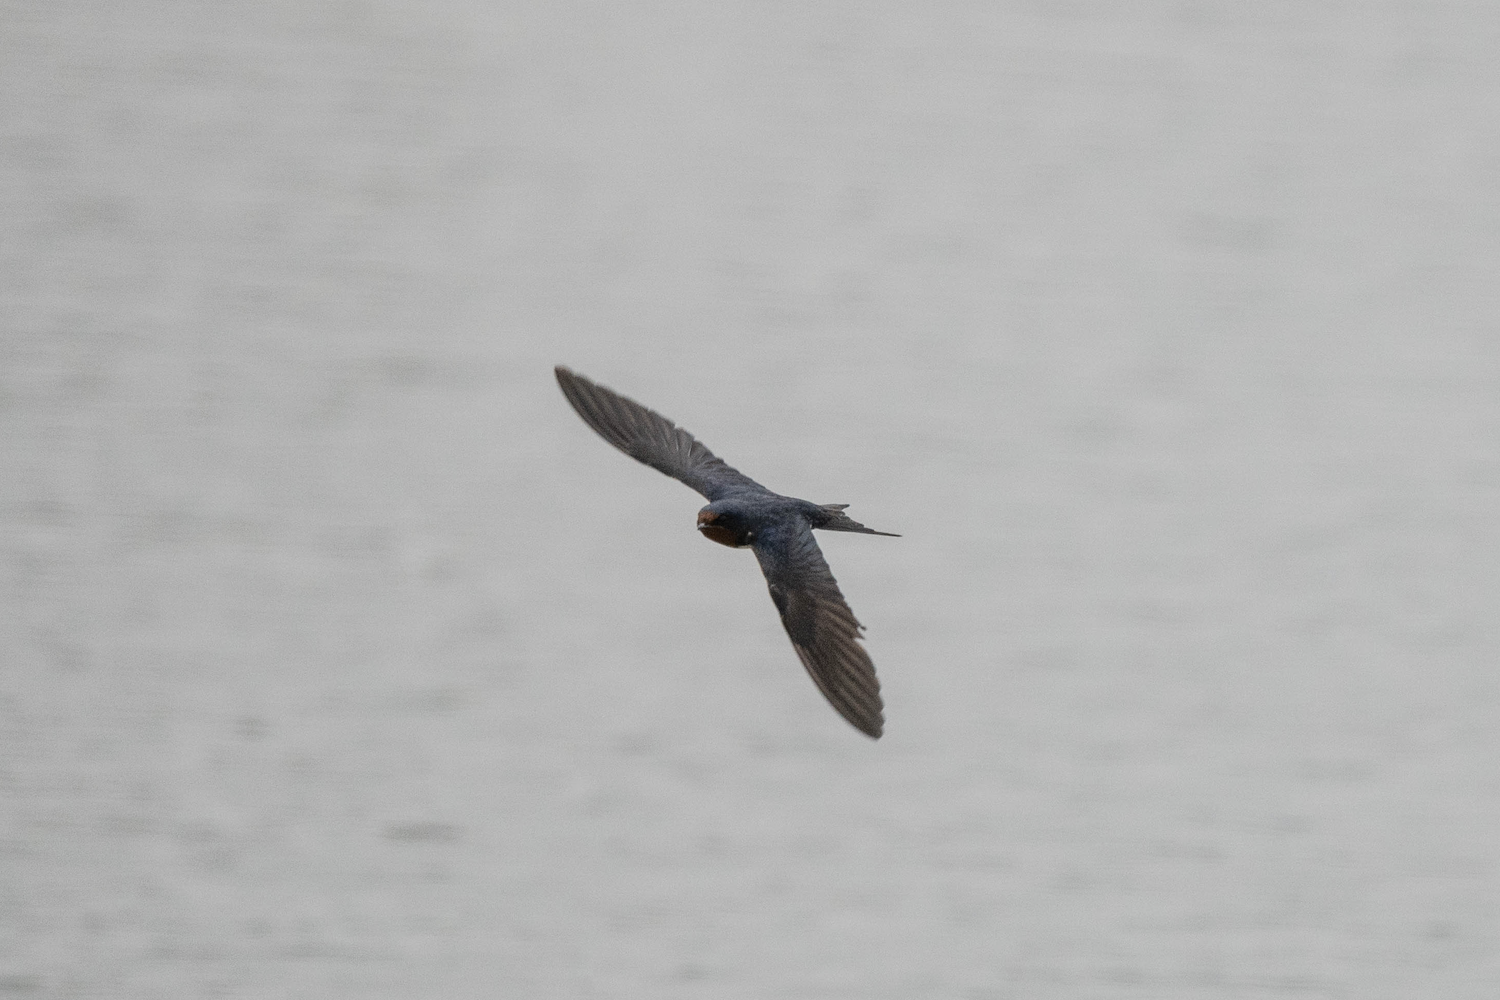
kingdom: Animalia
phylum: Chordata
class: Aves
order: Passeriformes
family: Hirundinidae
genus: Hirundo
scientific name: Hirundo rustica
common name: Barn swallow
